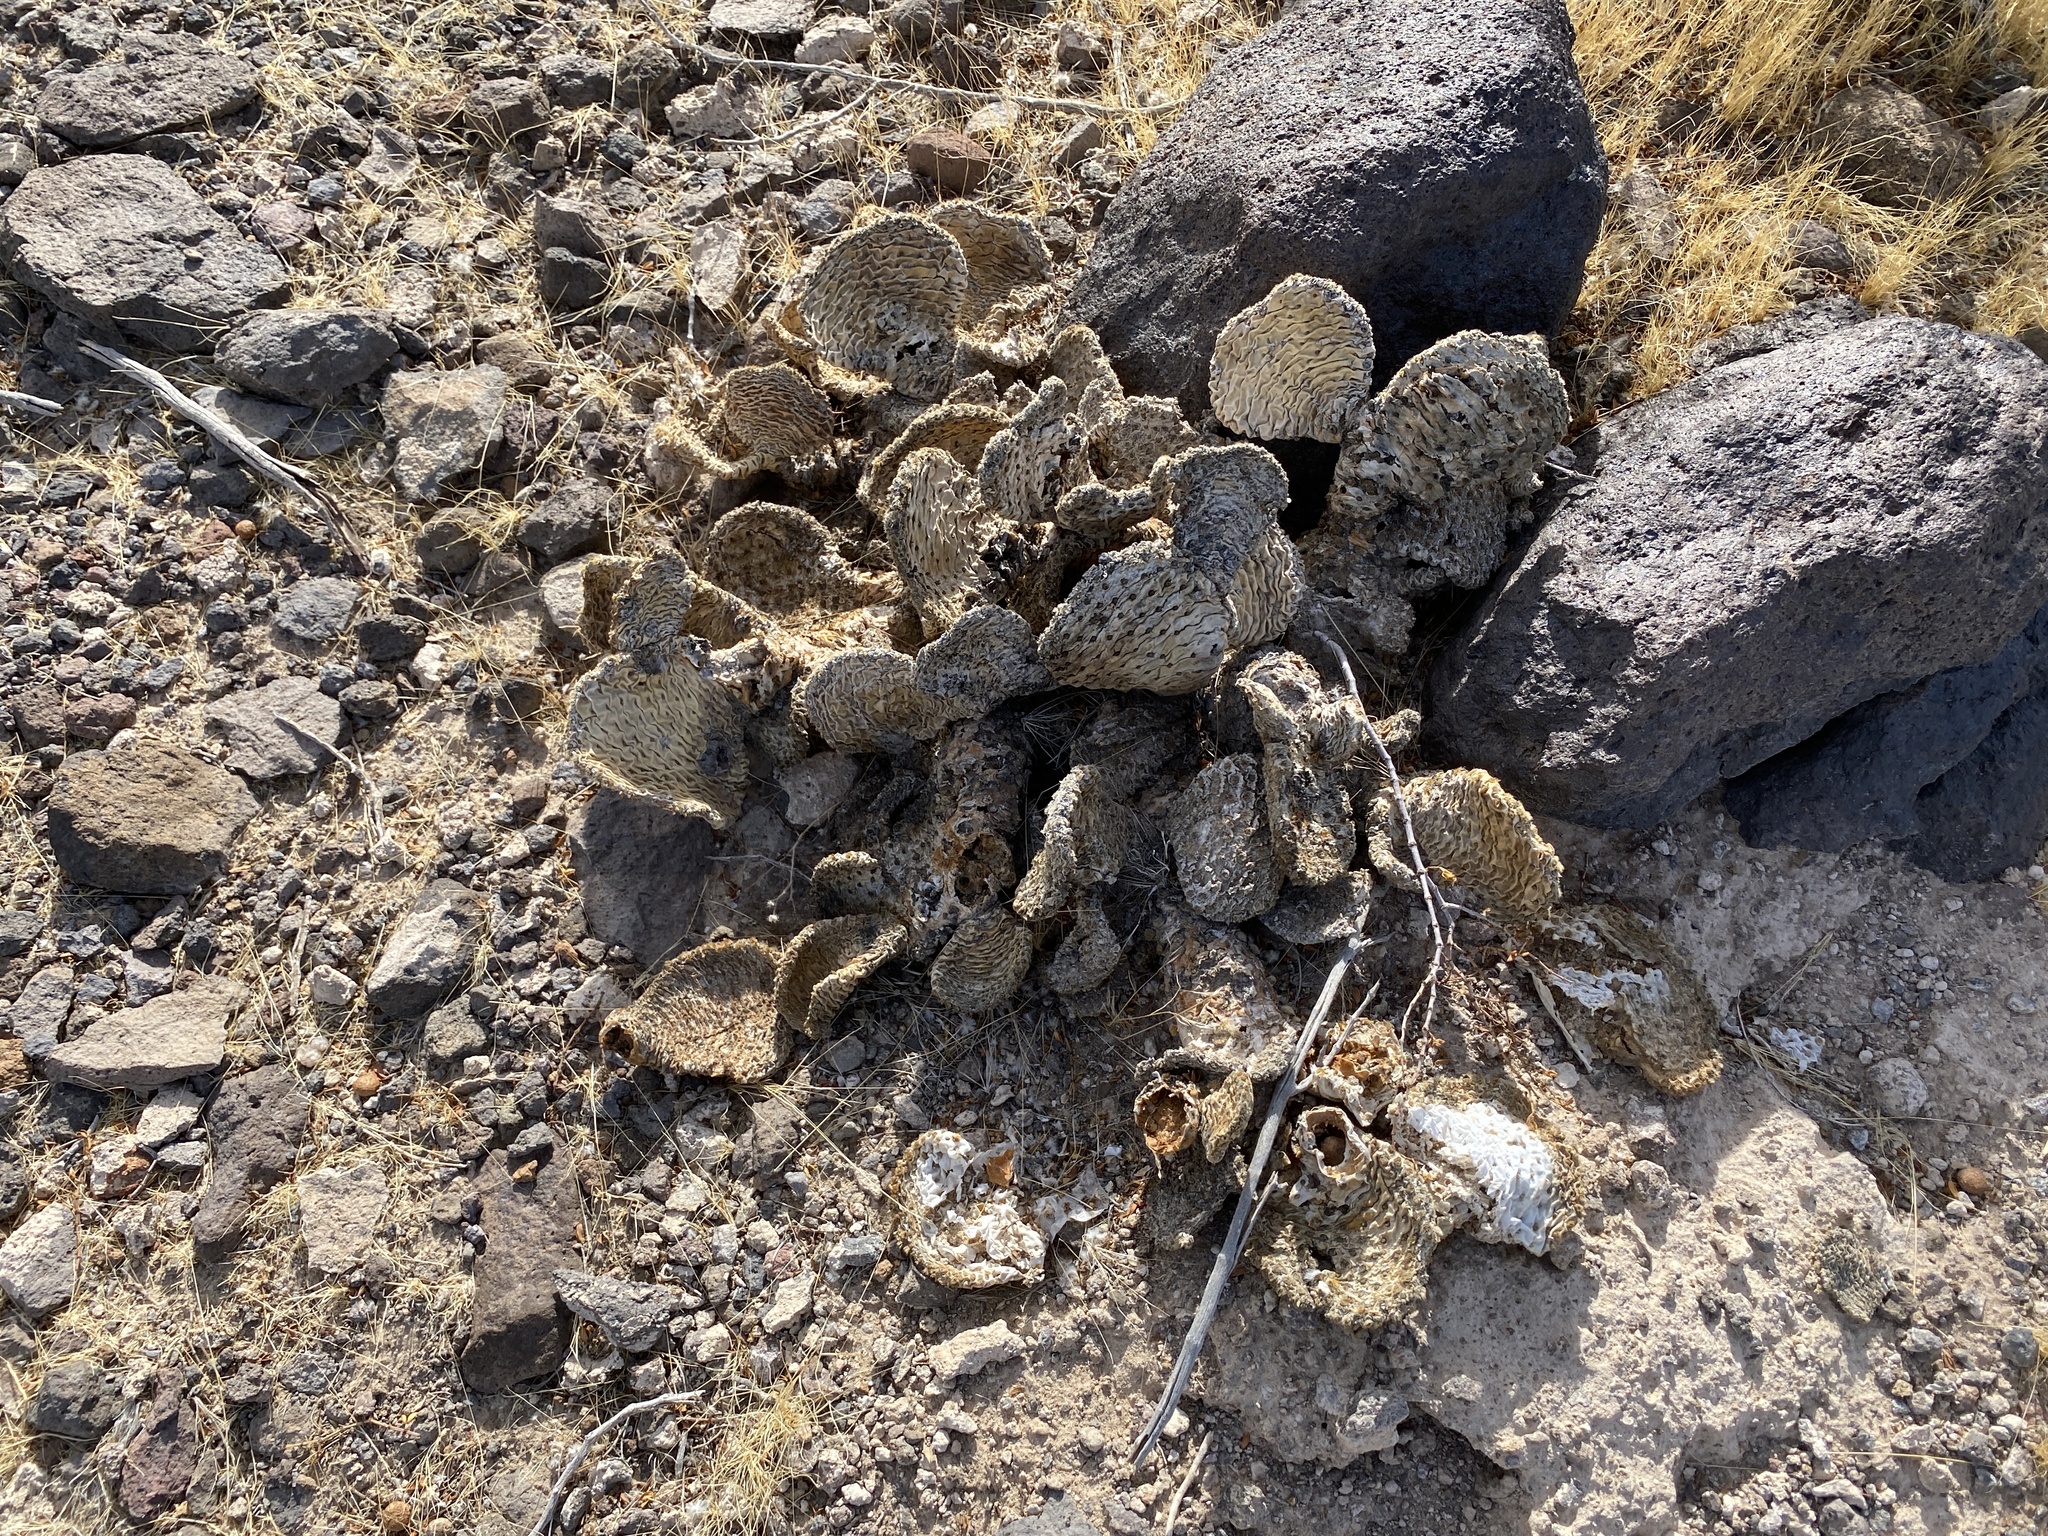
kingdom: Plantae
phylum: Tracheophyta
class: Magnoliopsida
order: Caryophyllales
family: Cactaceae
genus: Opuntia
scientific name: Opuntia basilaris
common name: Beavertail prickly-pear
